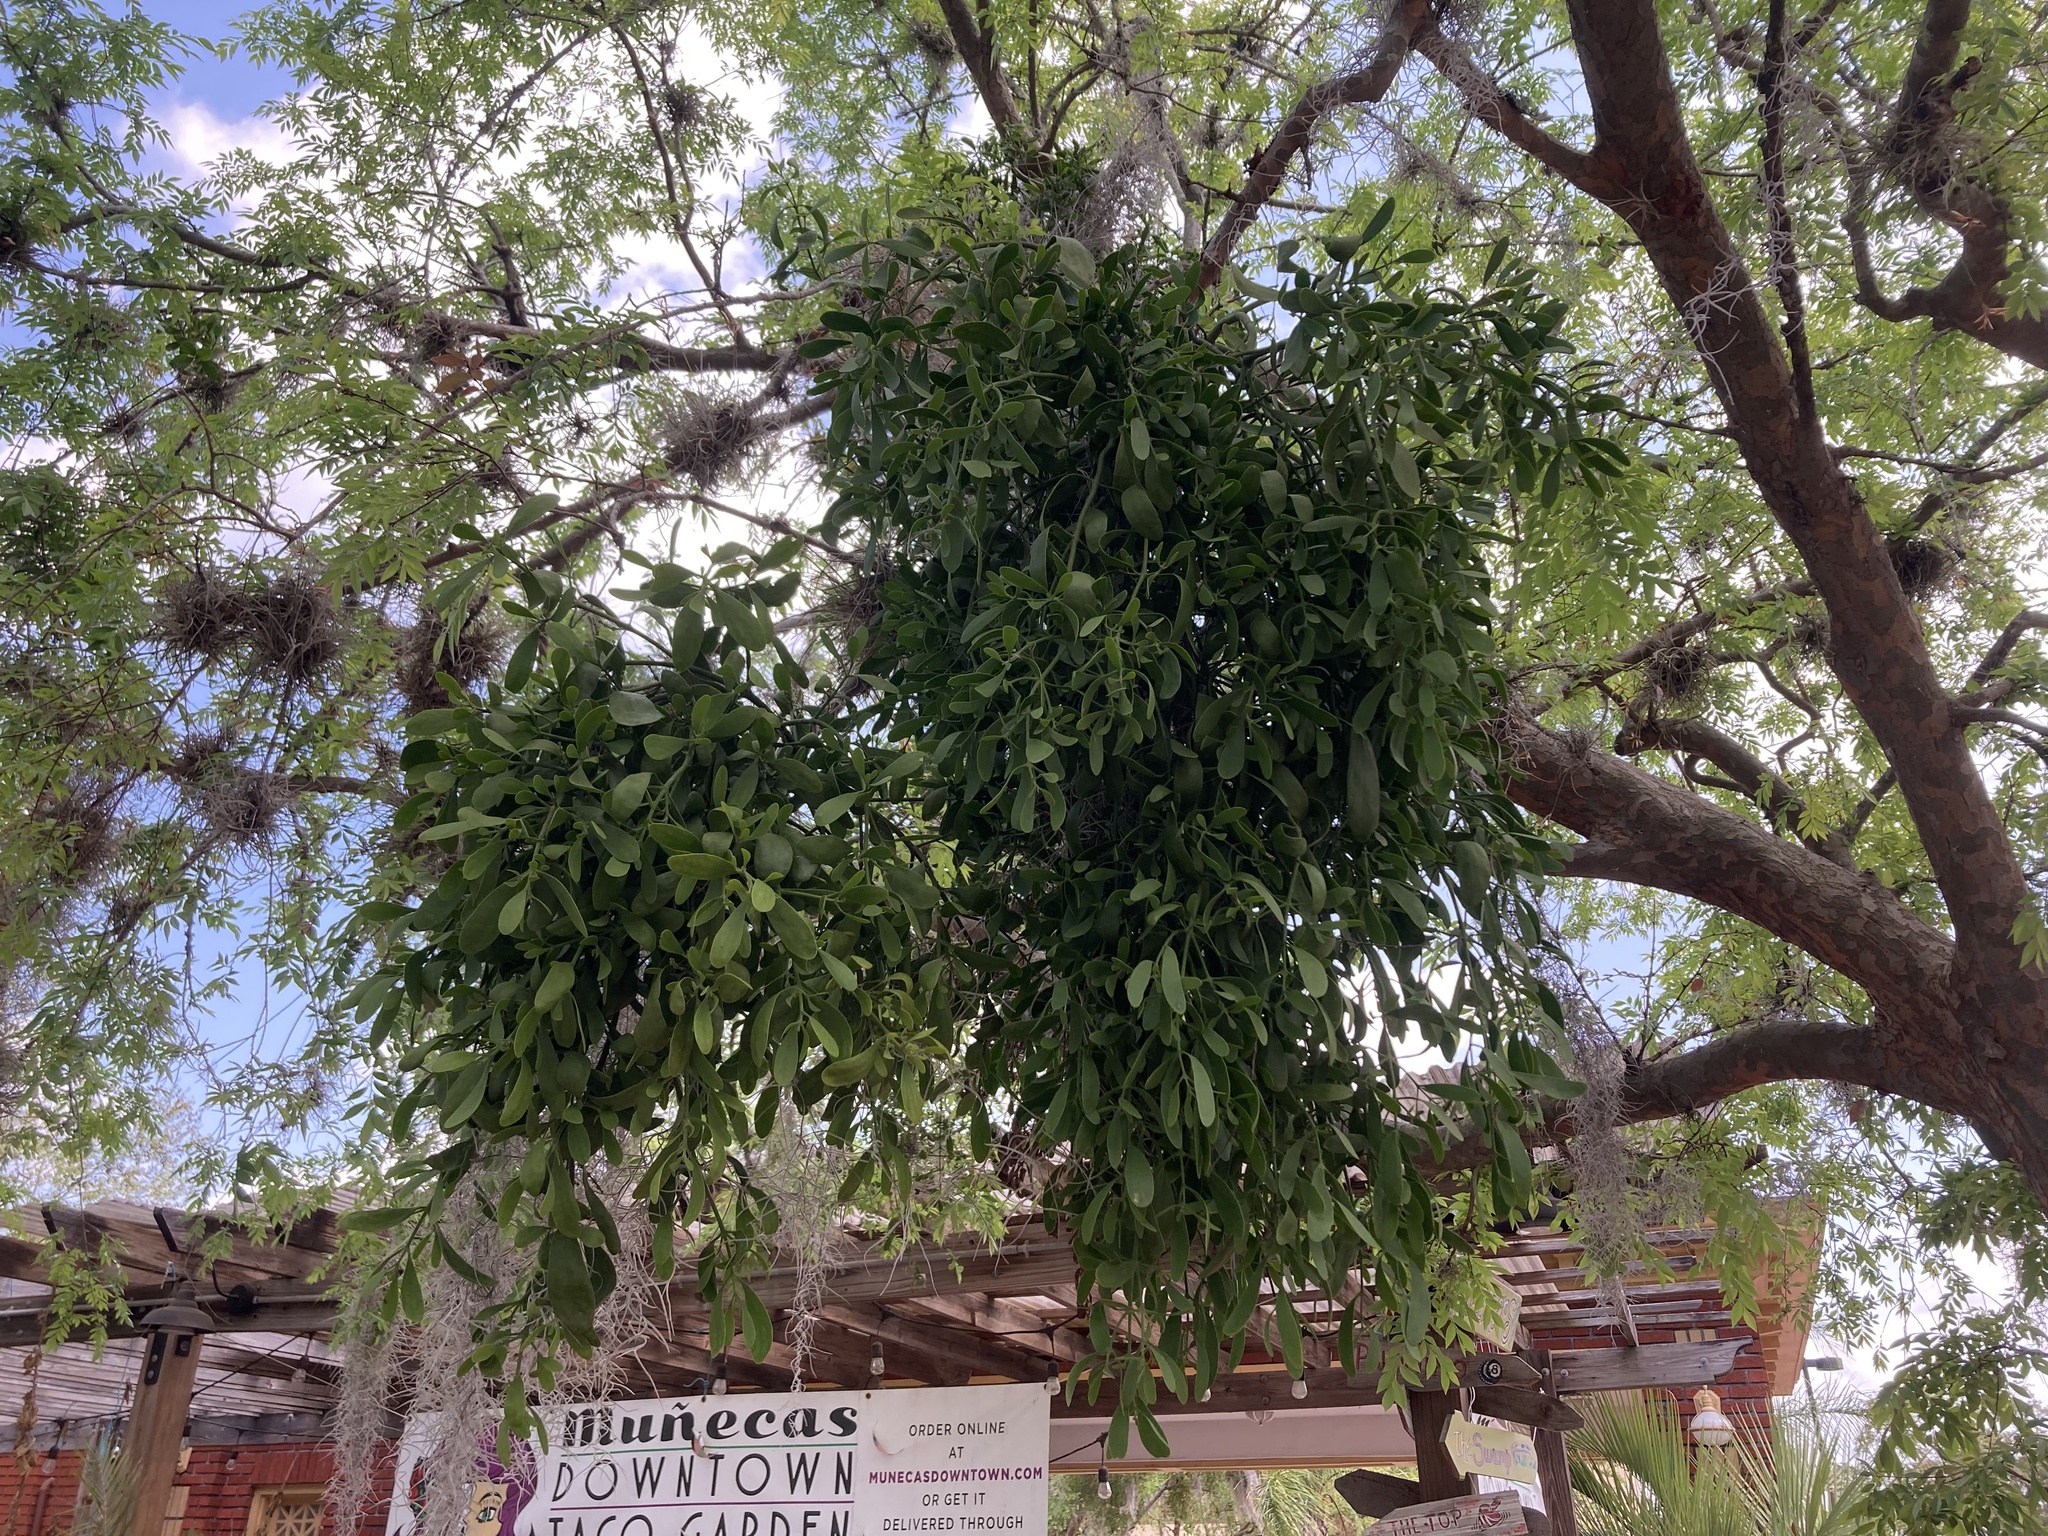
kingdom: Plantae
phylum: Tracheophyta
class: Magnoliopsida
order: Santalales
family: Viscaceae
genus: Phoradendron
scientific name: Phoradendron leucarpum
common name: Pacific mistletoe
